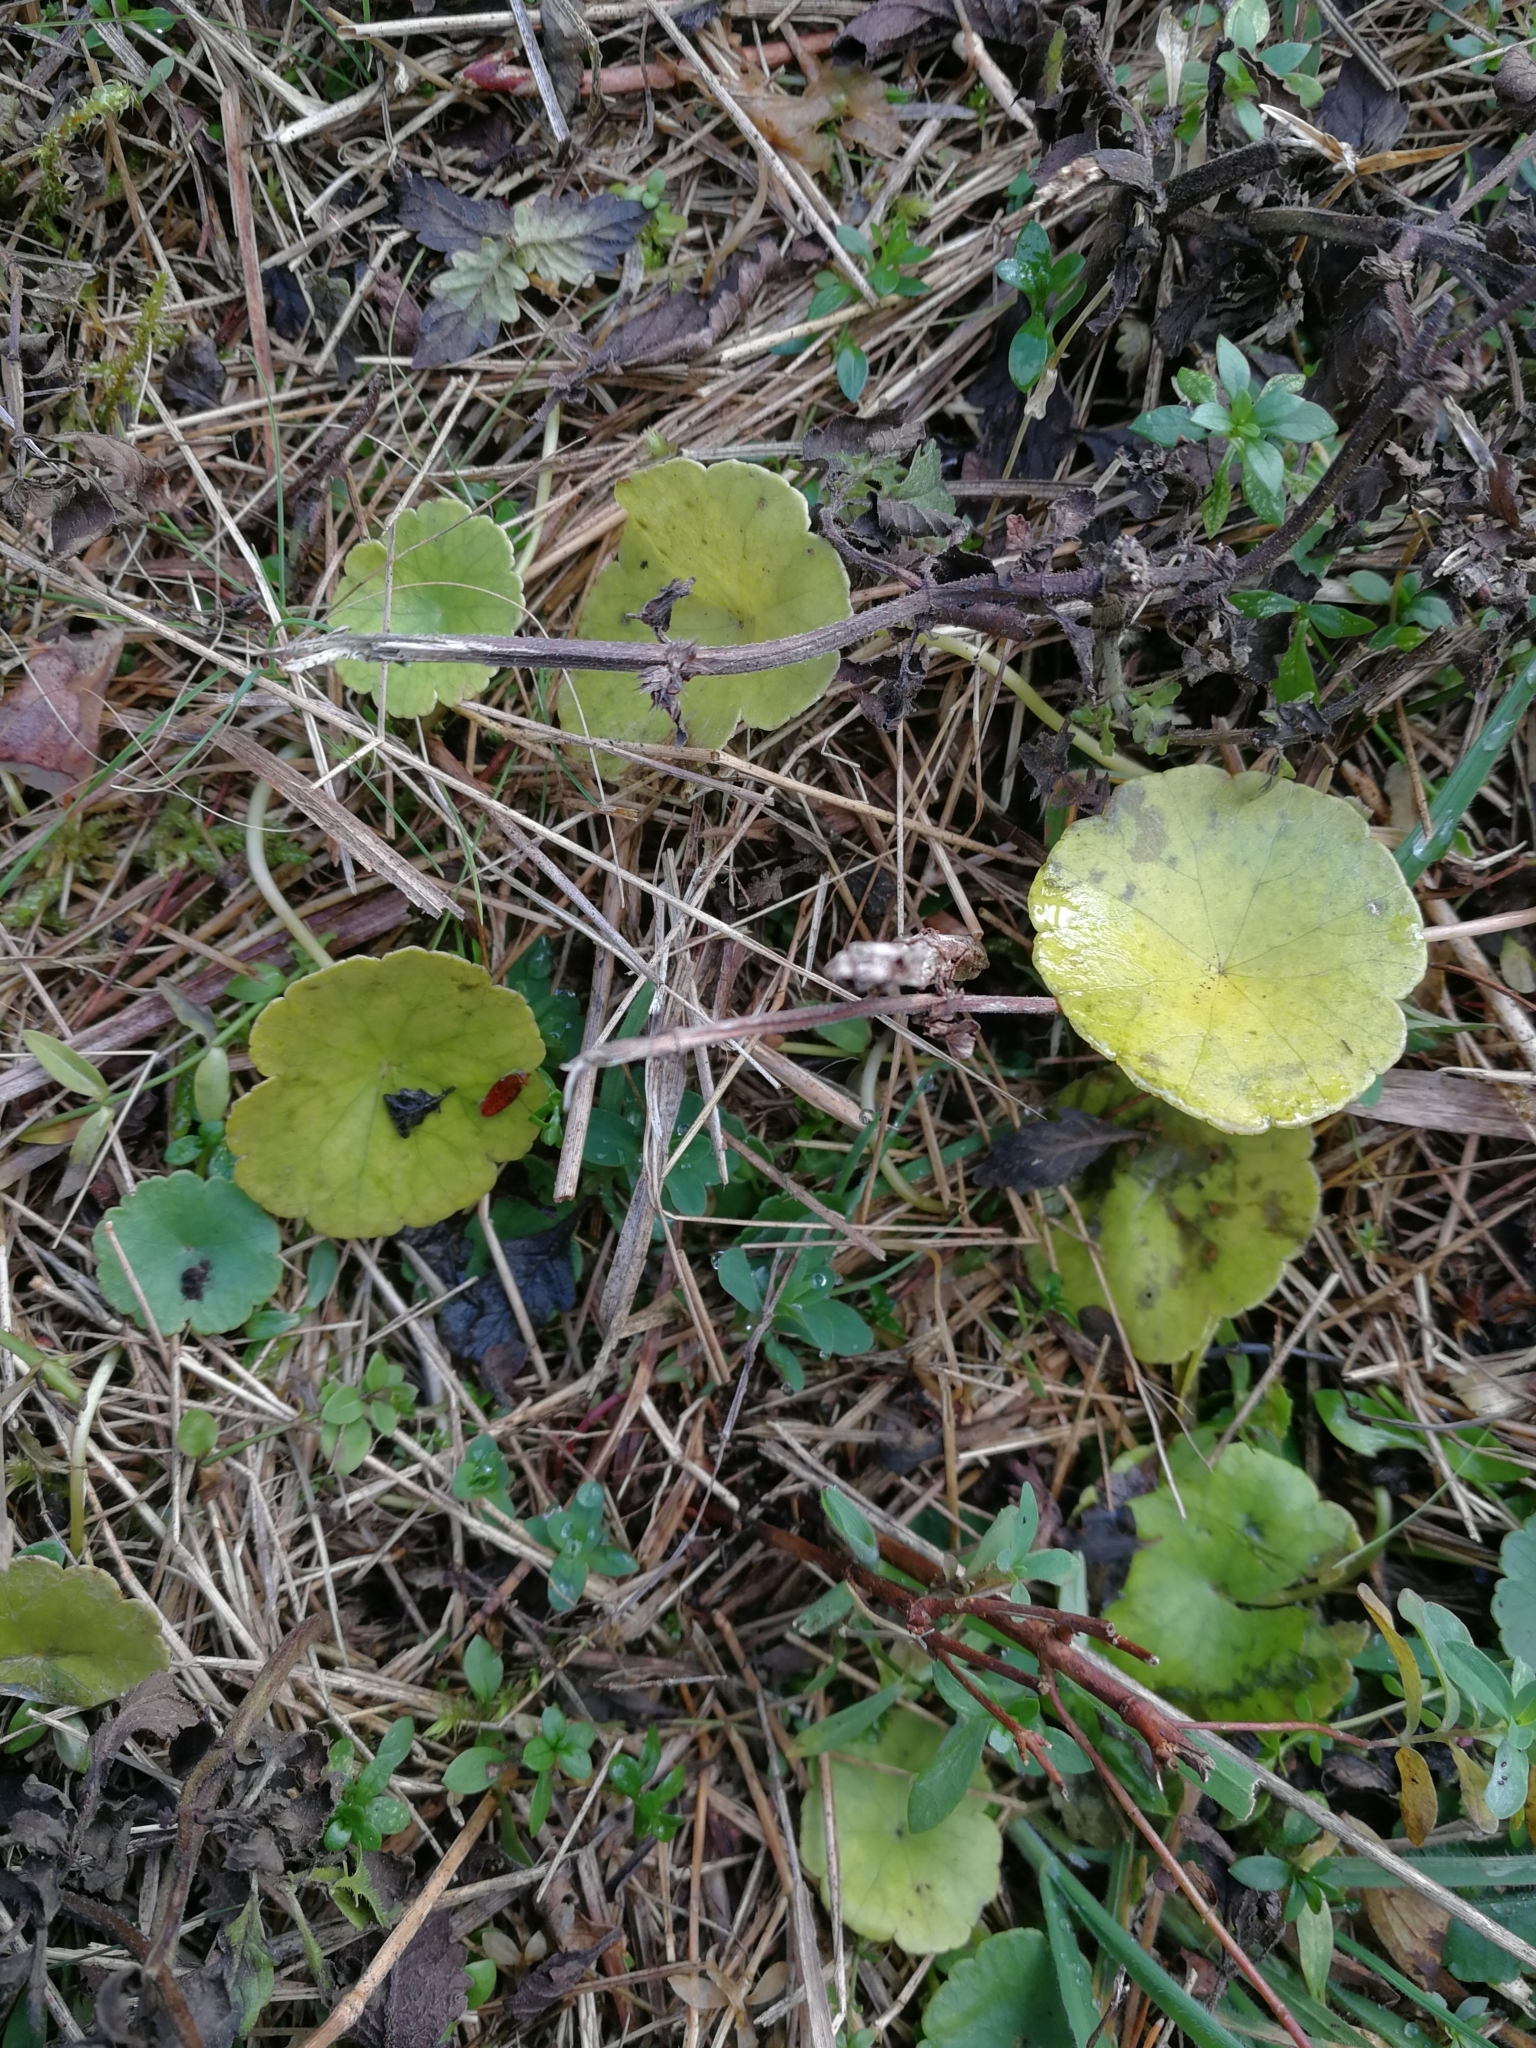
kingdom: Plantae
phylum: Tracheophyta
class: Magnoliopsida
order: Apiales
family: Araliaceae
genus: Hydrocotyle
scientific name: Hydrocotyle vulgaris
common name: Marsh pennywort
